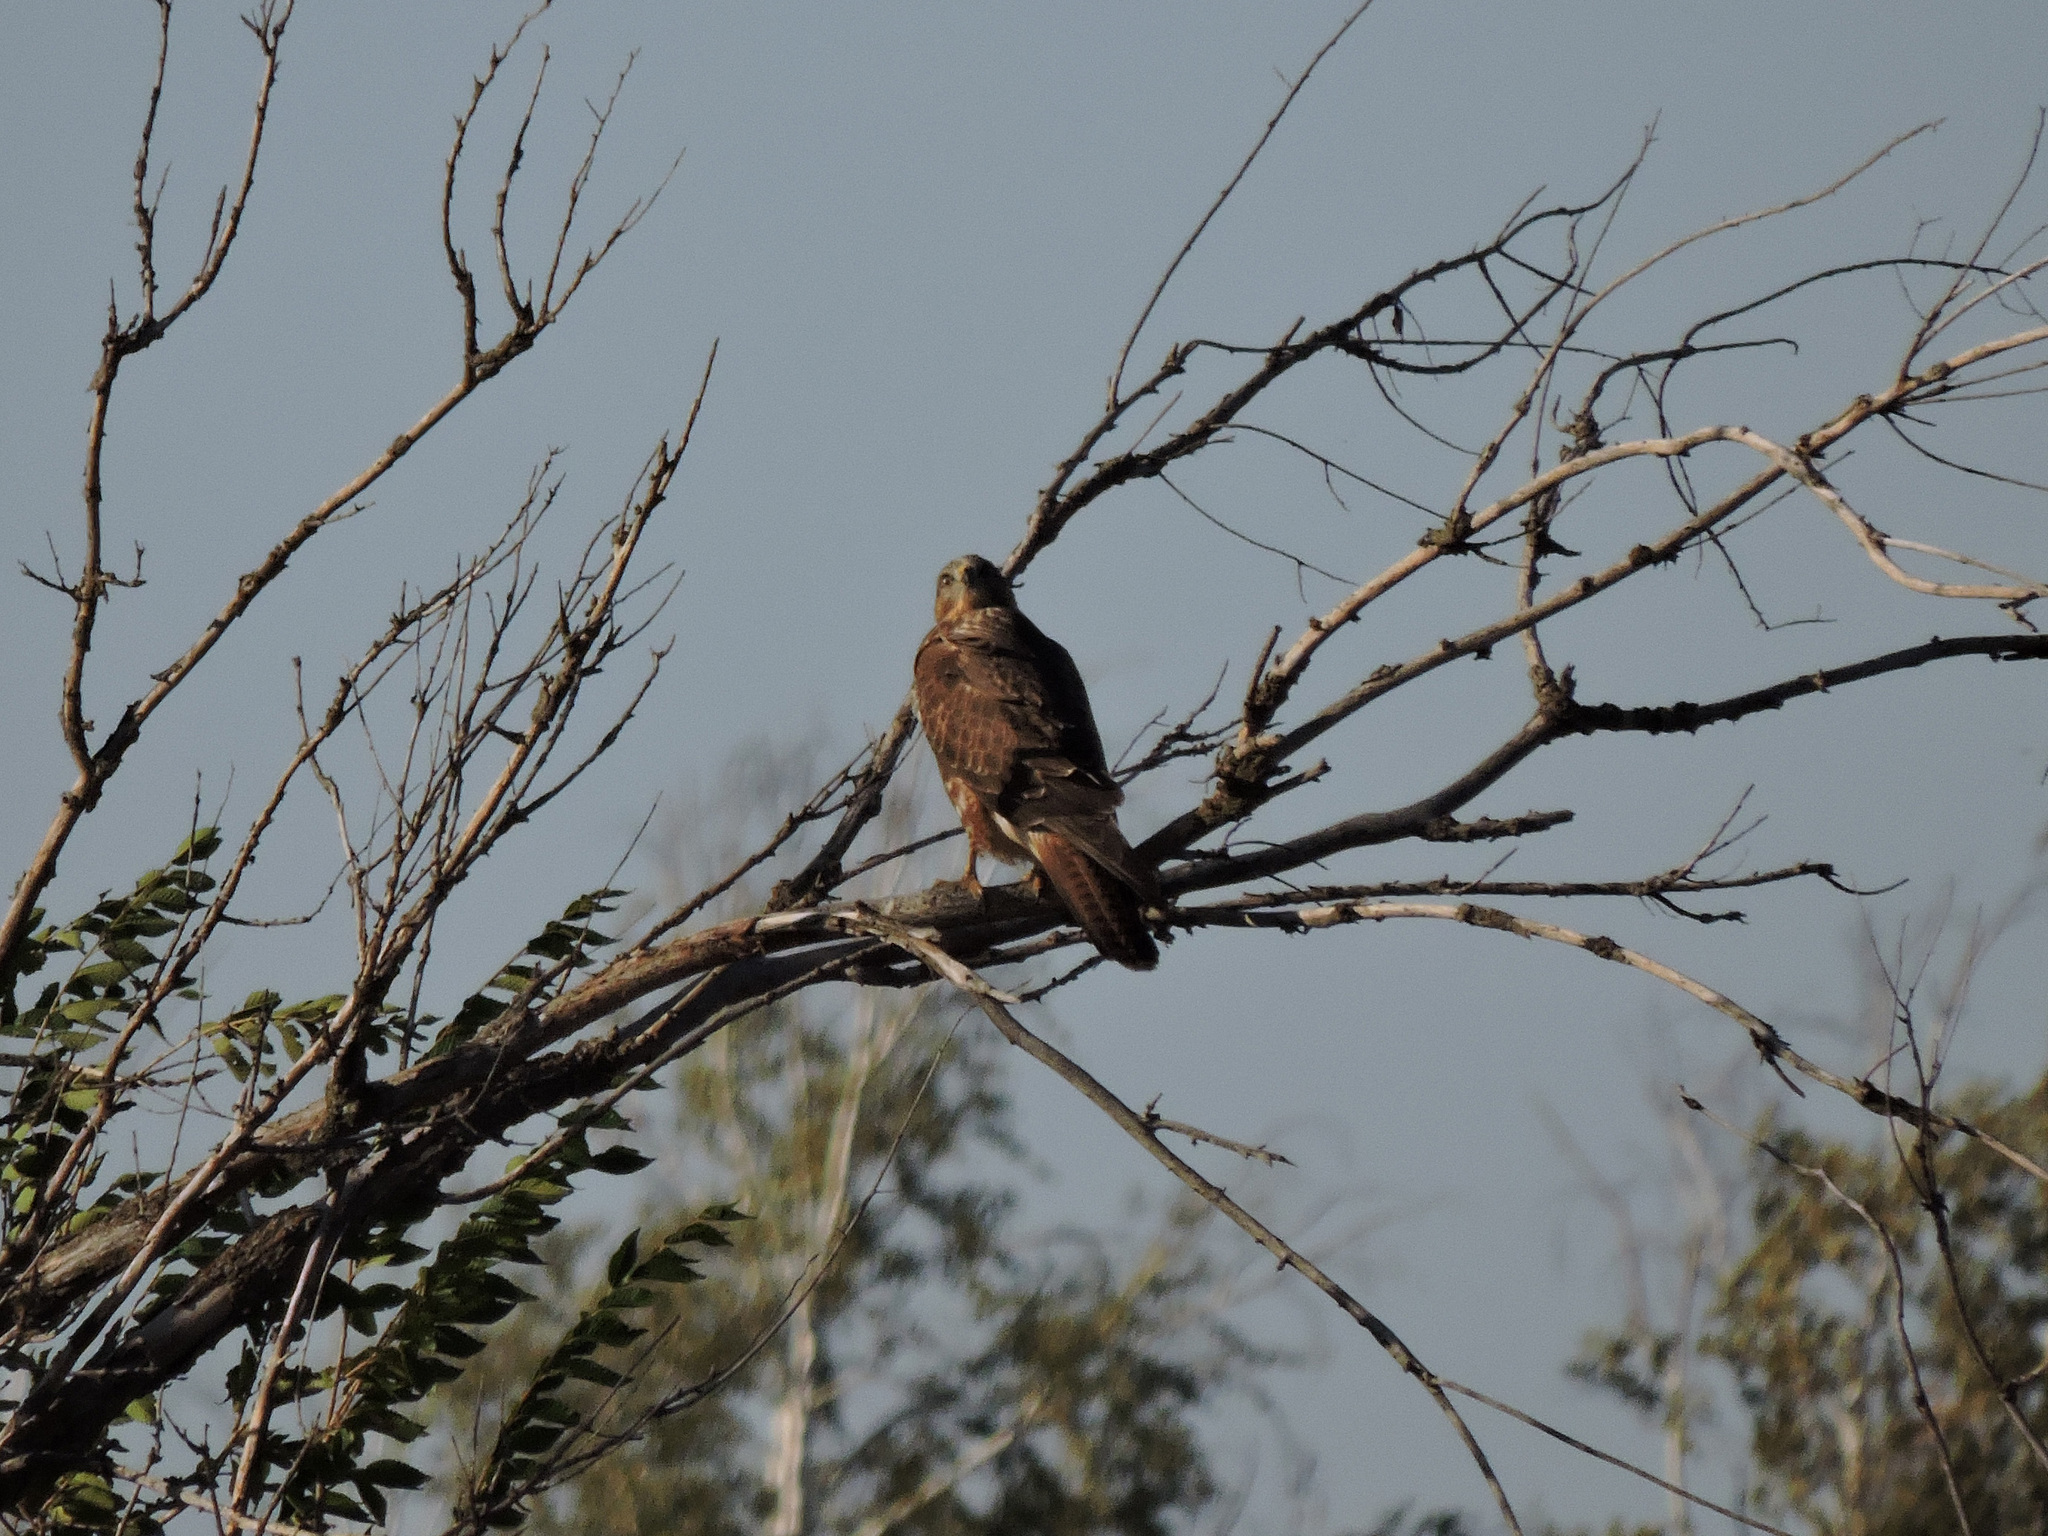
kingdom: Animalia
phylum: Chordata
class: Aves
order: Accipitriformes
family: Accipitridae
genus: Buteo
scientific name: Buteo buteo
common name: Common buzzard
